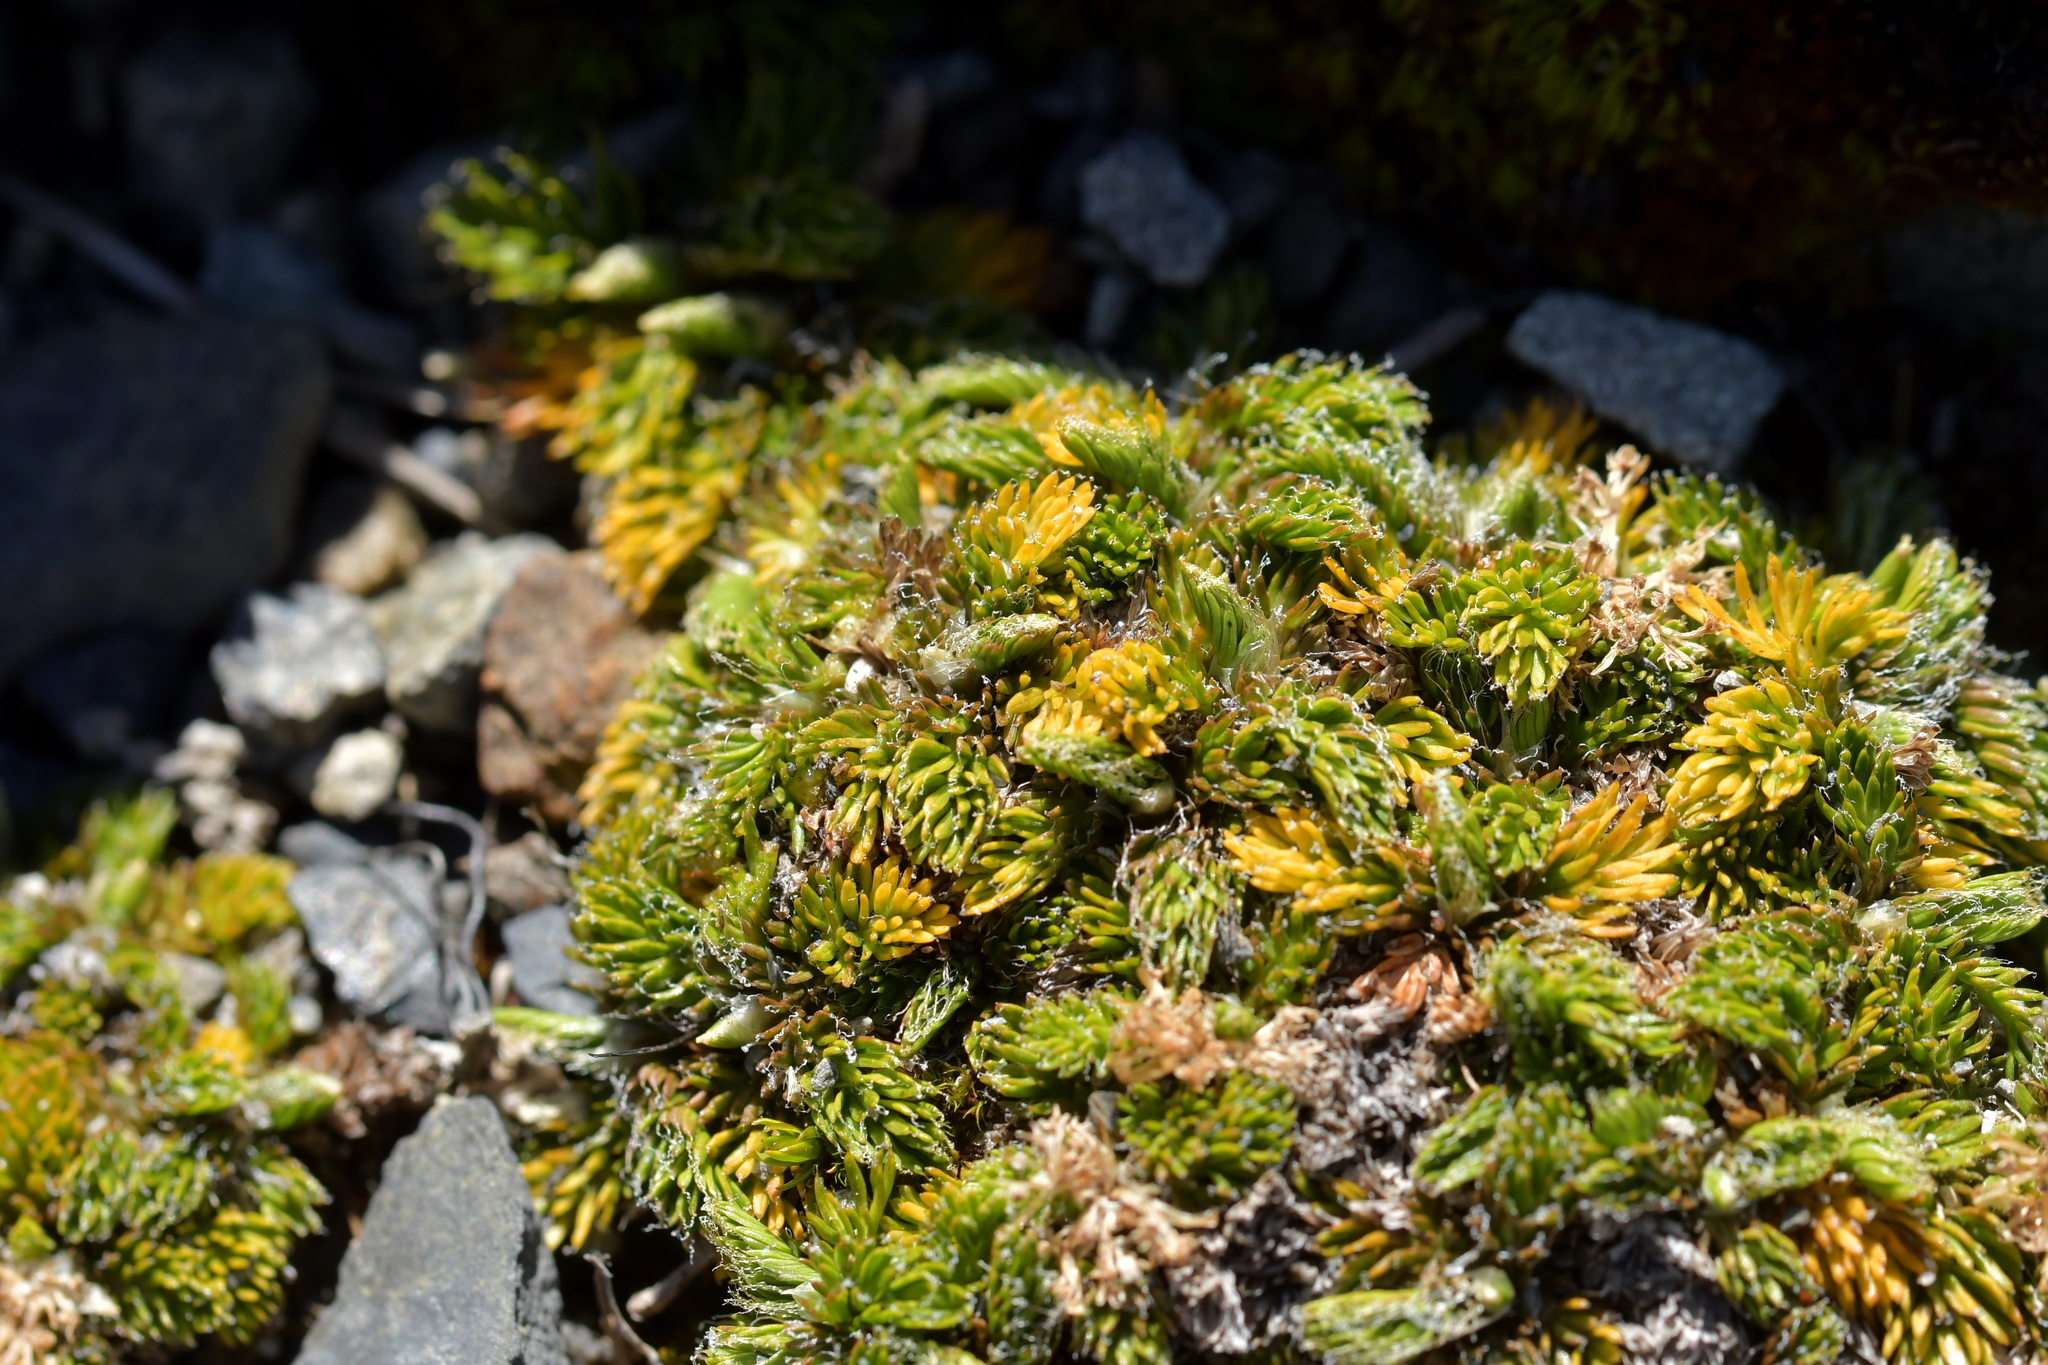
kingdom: Plantae
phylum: Tracheophyta
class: Magnoliopsida
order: Apiales
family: Apiaceae
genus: Anisotome
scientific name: Anisotome imbricata
